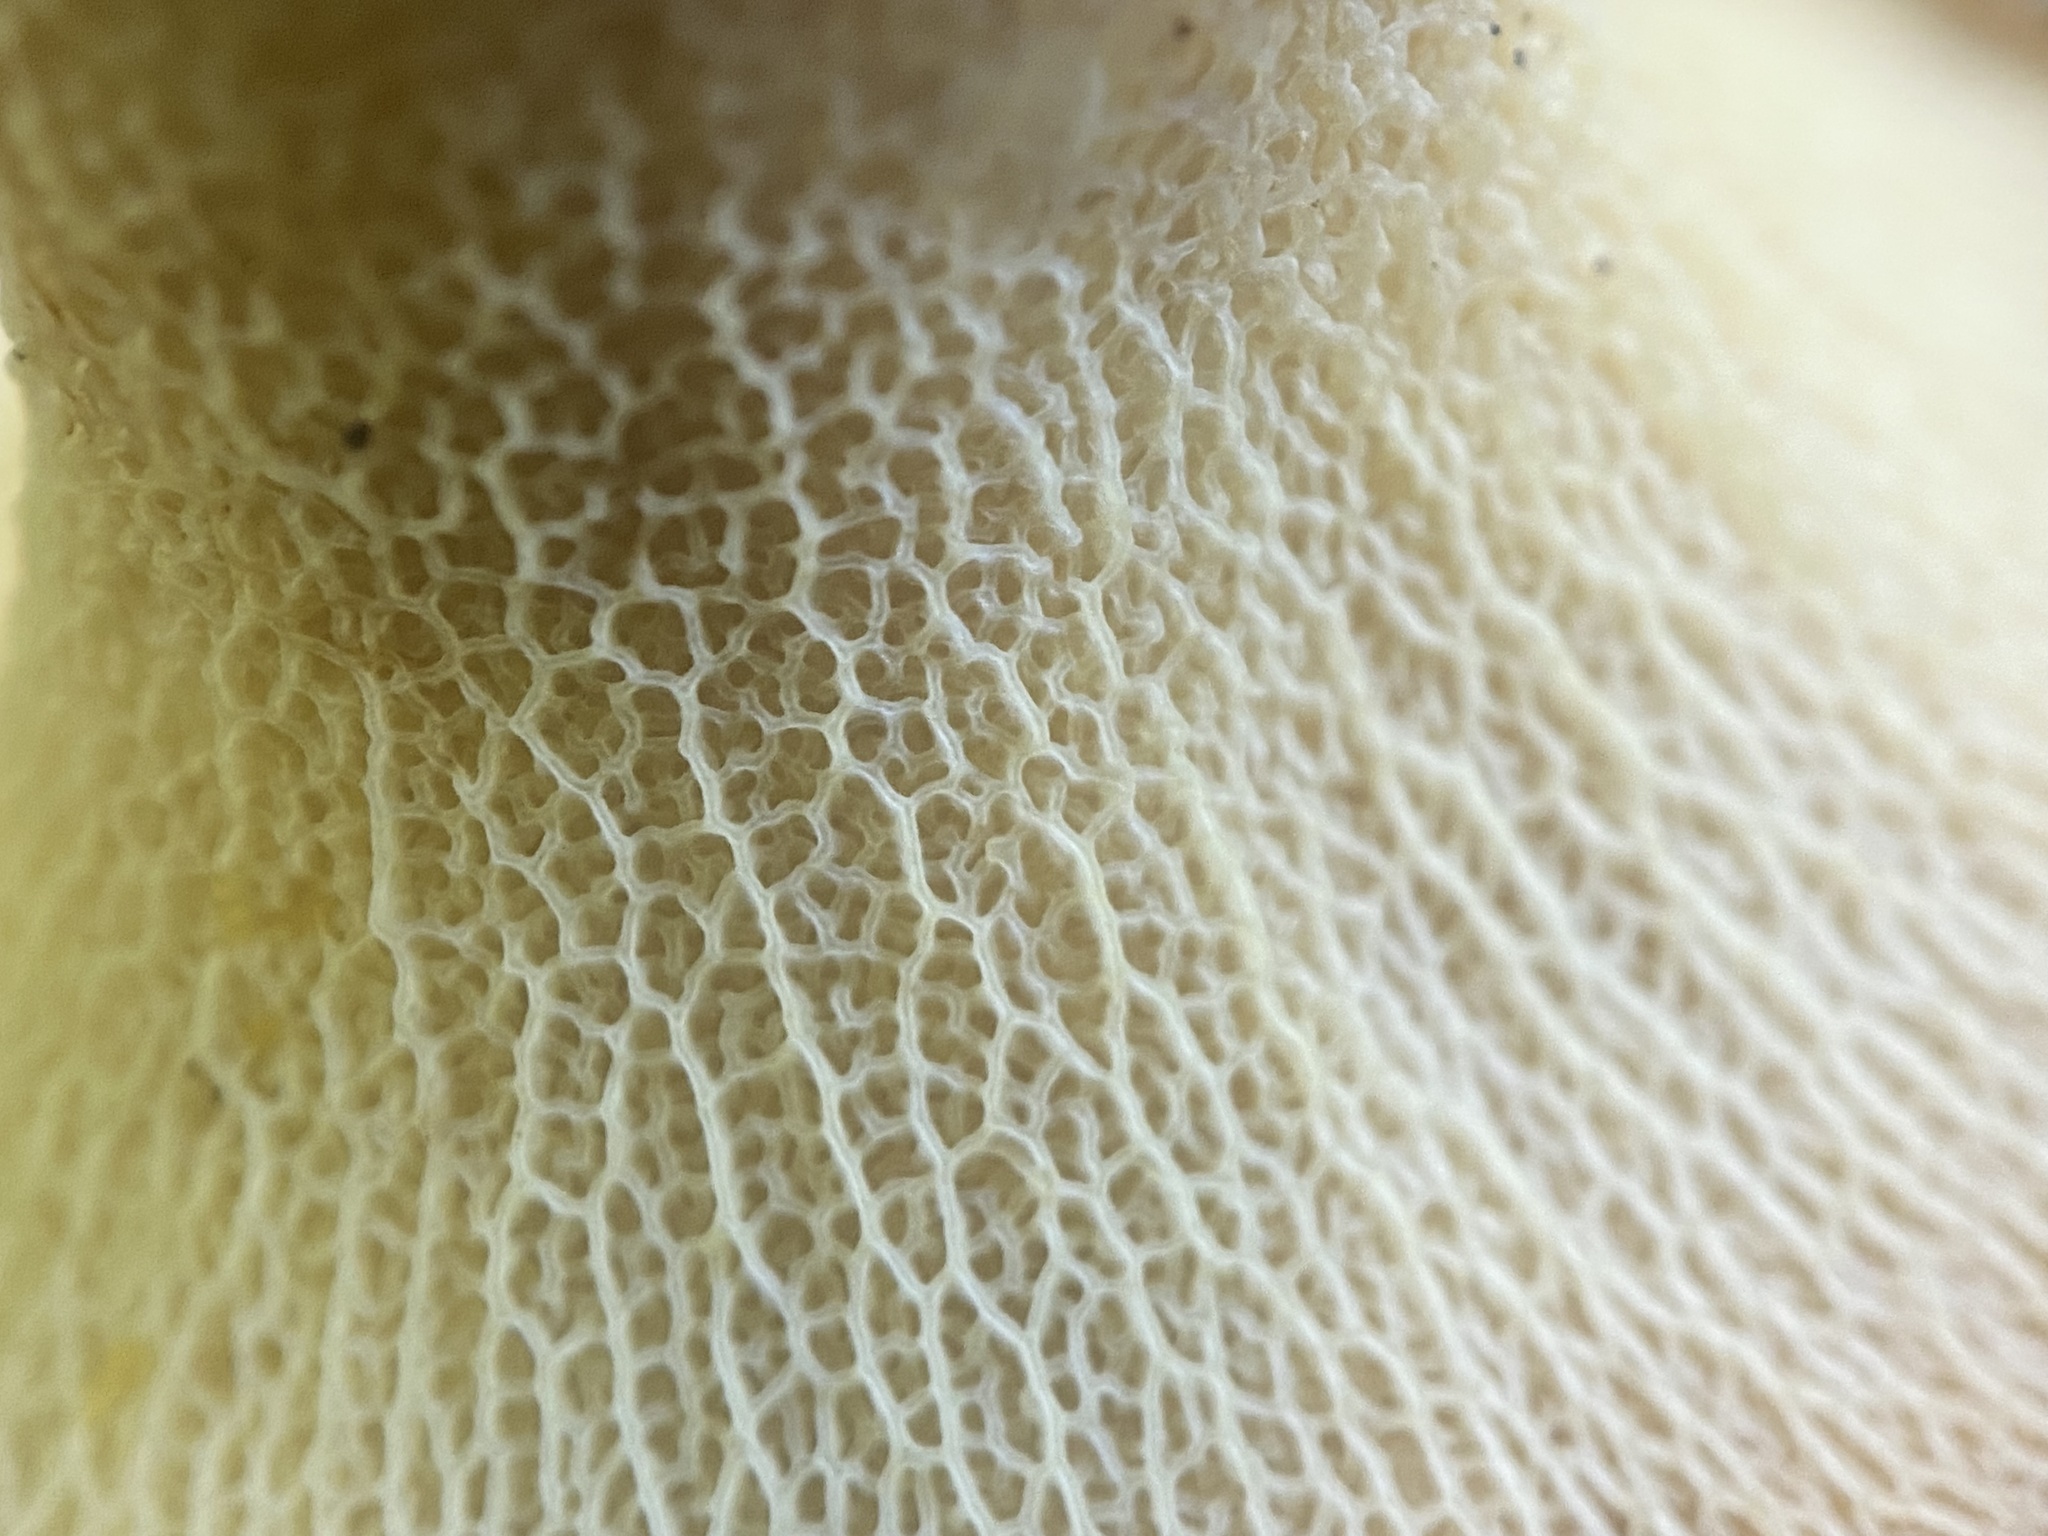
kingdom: Fungi
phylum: Basidiomycota
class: Agaricomycetes
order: Boletales
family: Boletinellaceae
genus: Boletinellus
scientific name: Boletinellus merulioides
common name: Ash tree bolete
